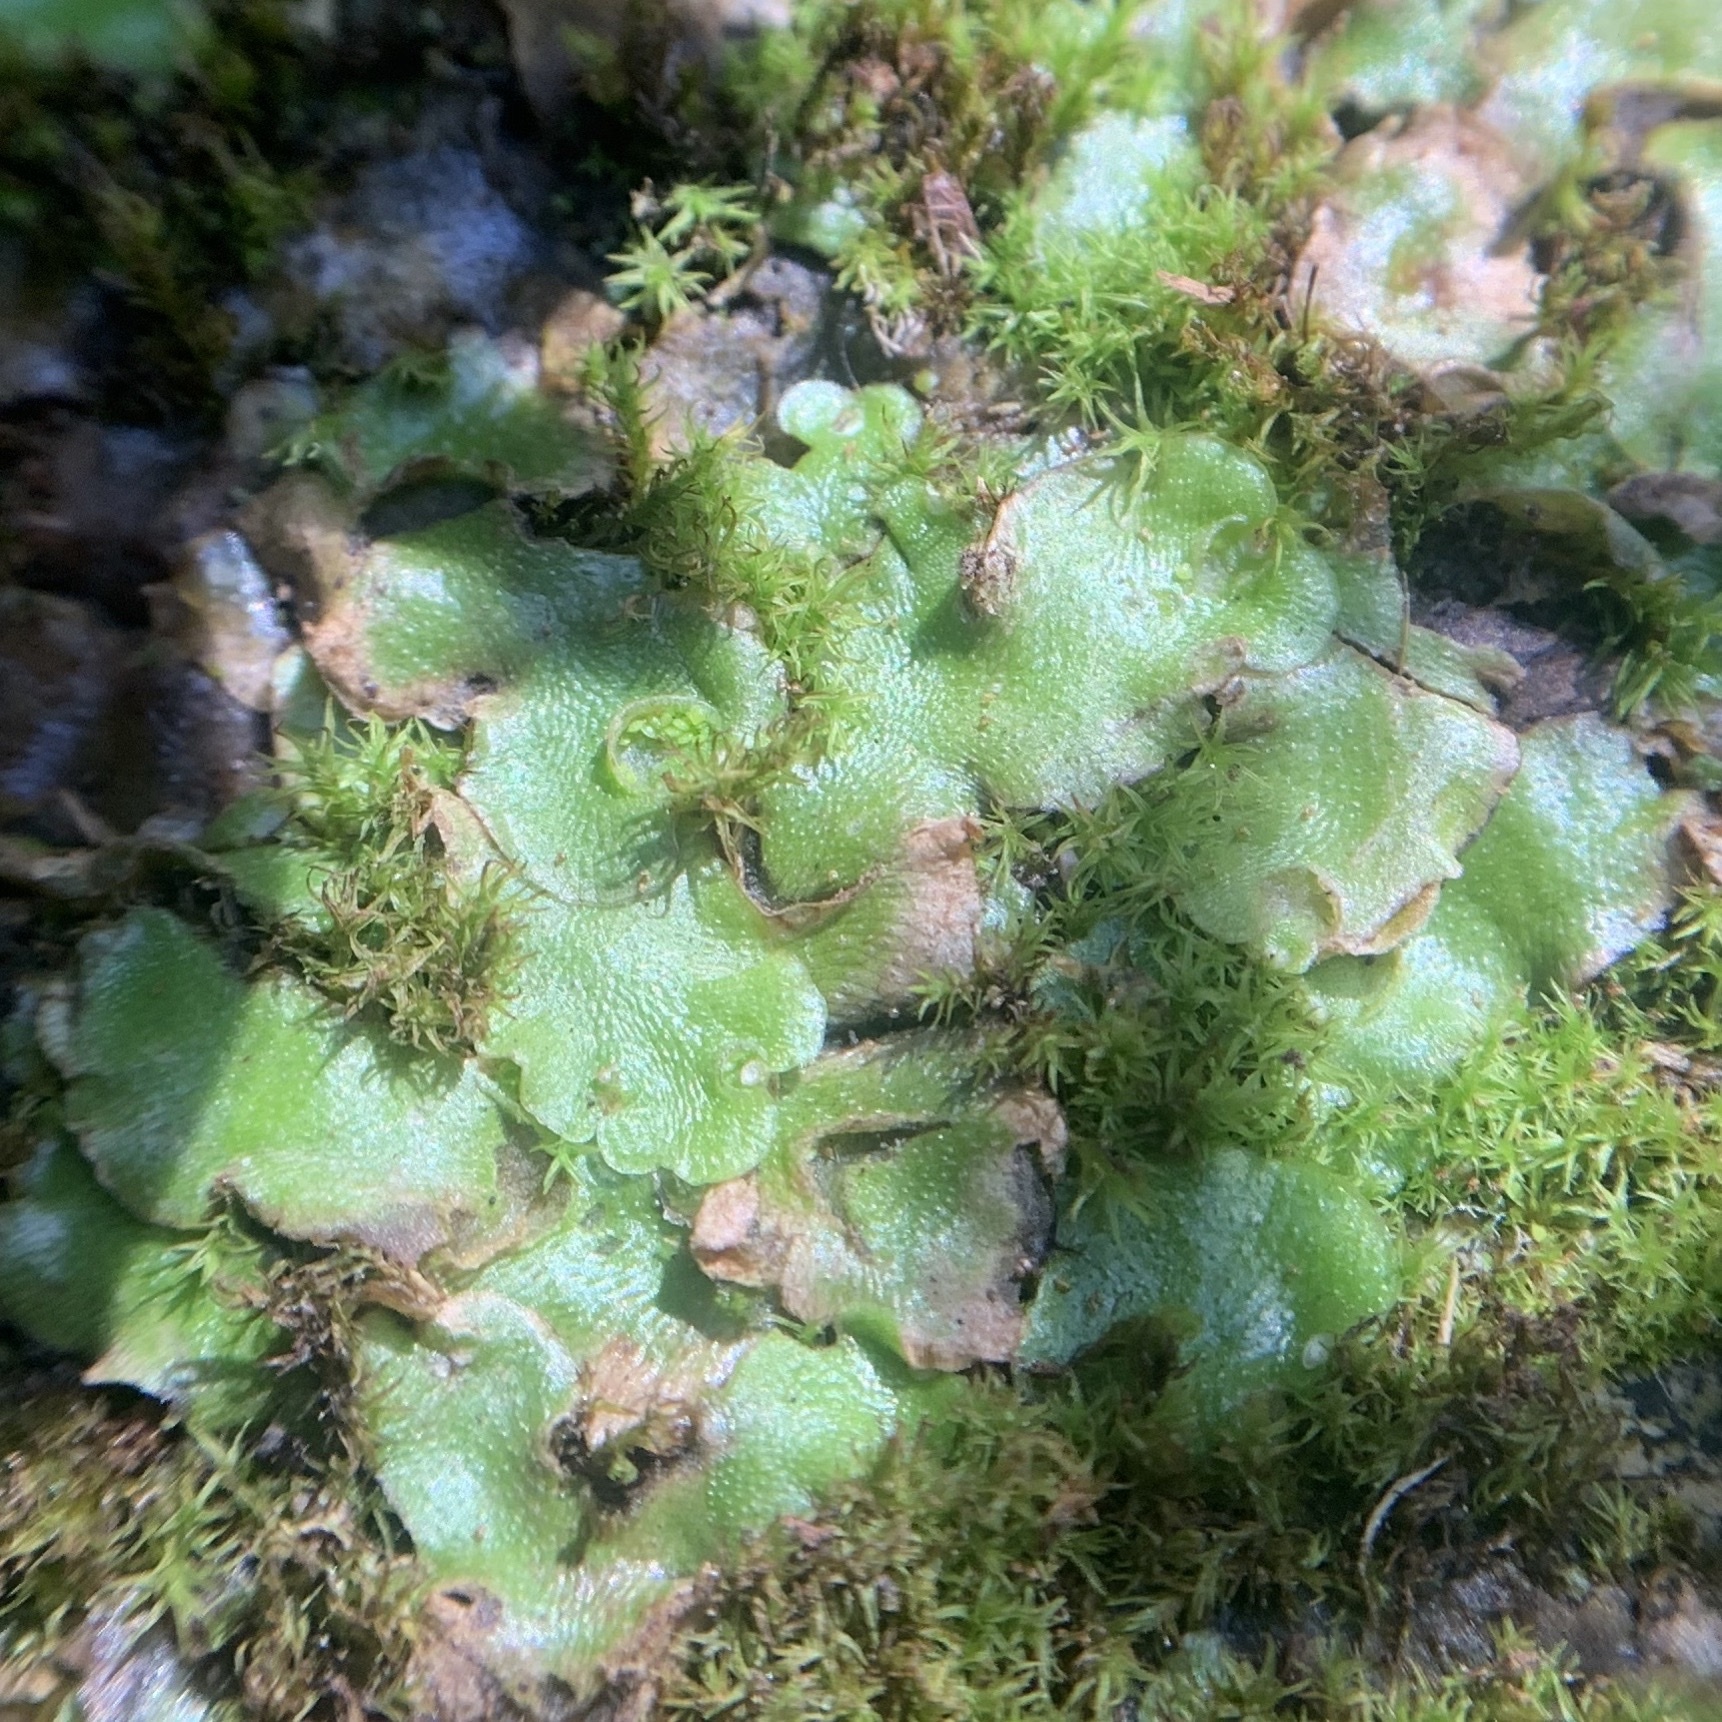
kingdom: Plantae
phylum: Marchantiophyta
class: Marchantiopsida
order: Lunulariales
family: Lunulariaceae
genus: Lunularia
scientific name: Lunularia cruciata
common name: Crescent-cup liverwort
